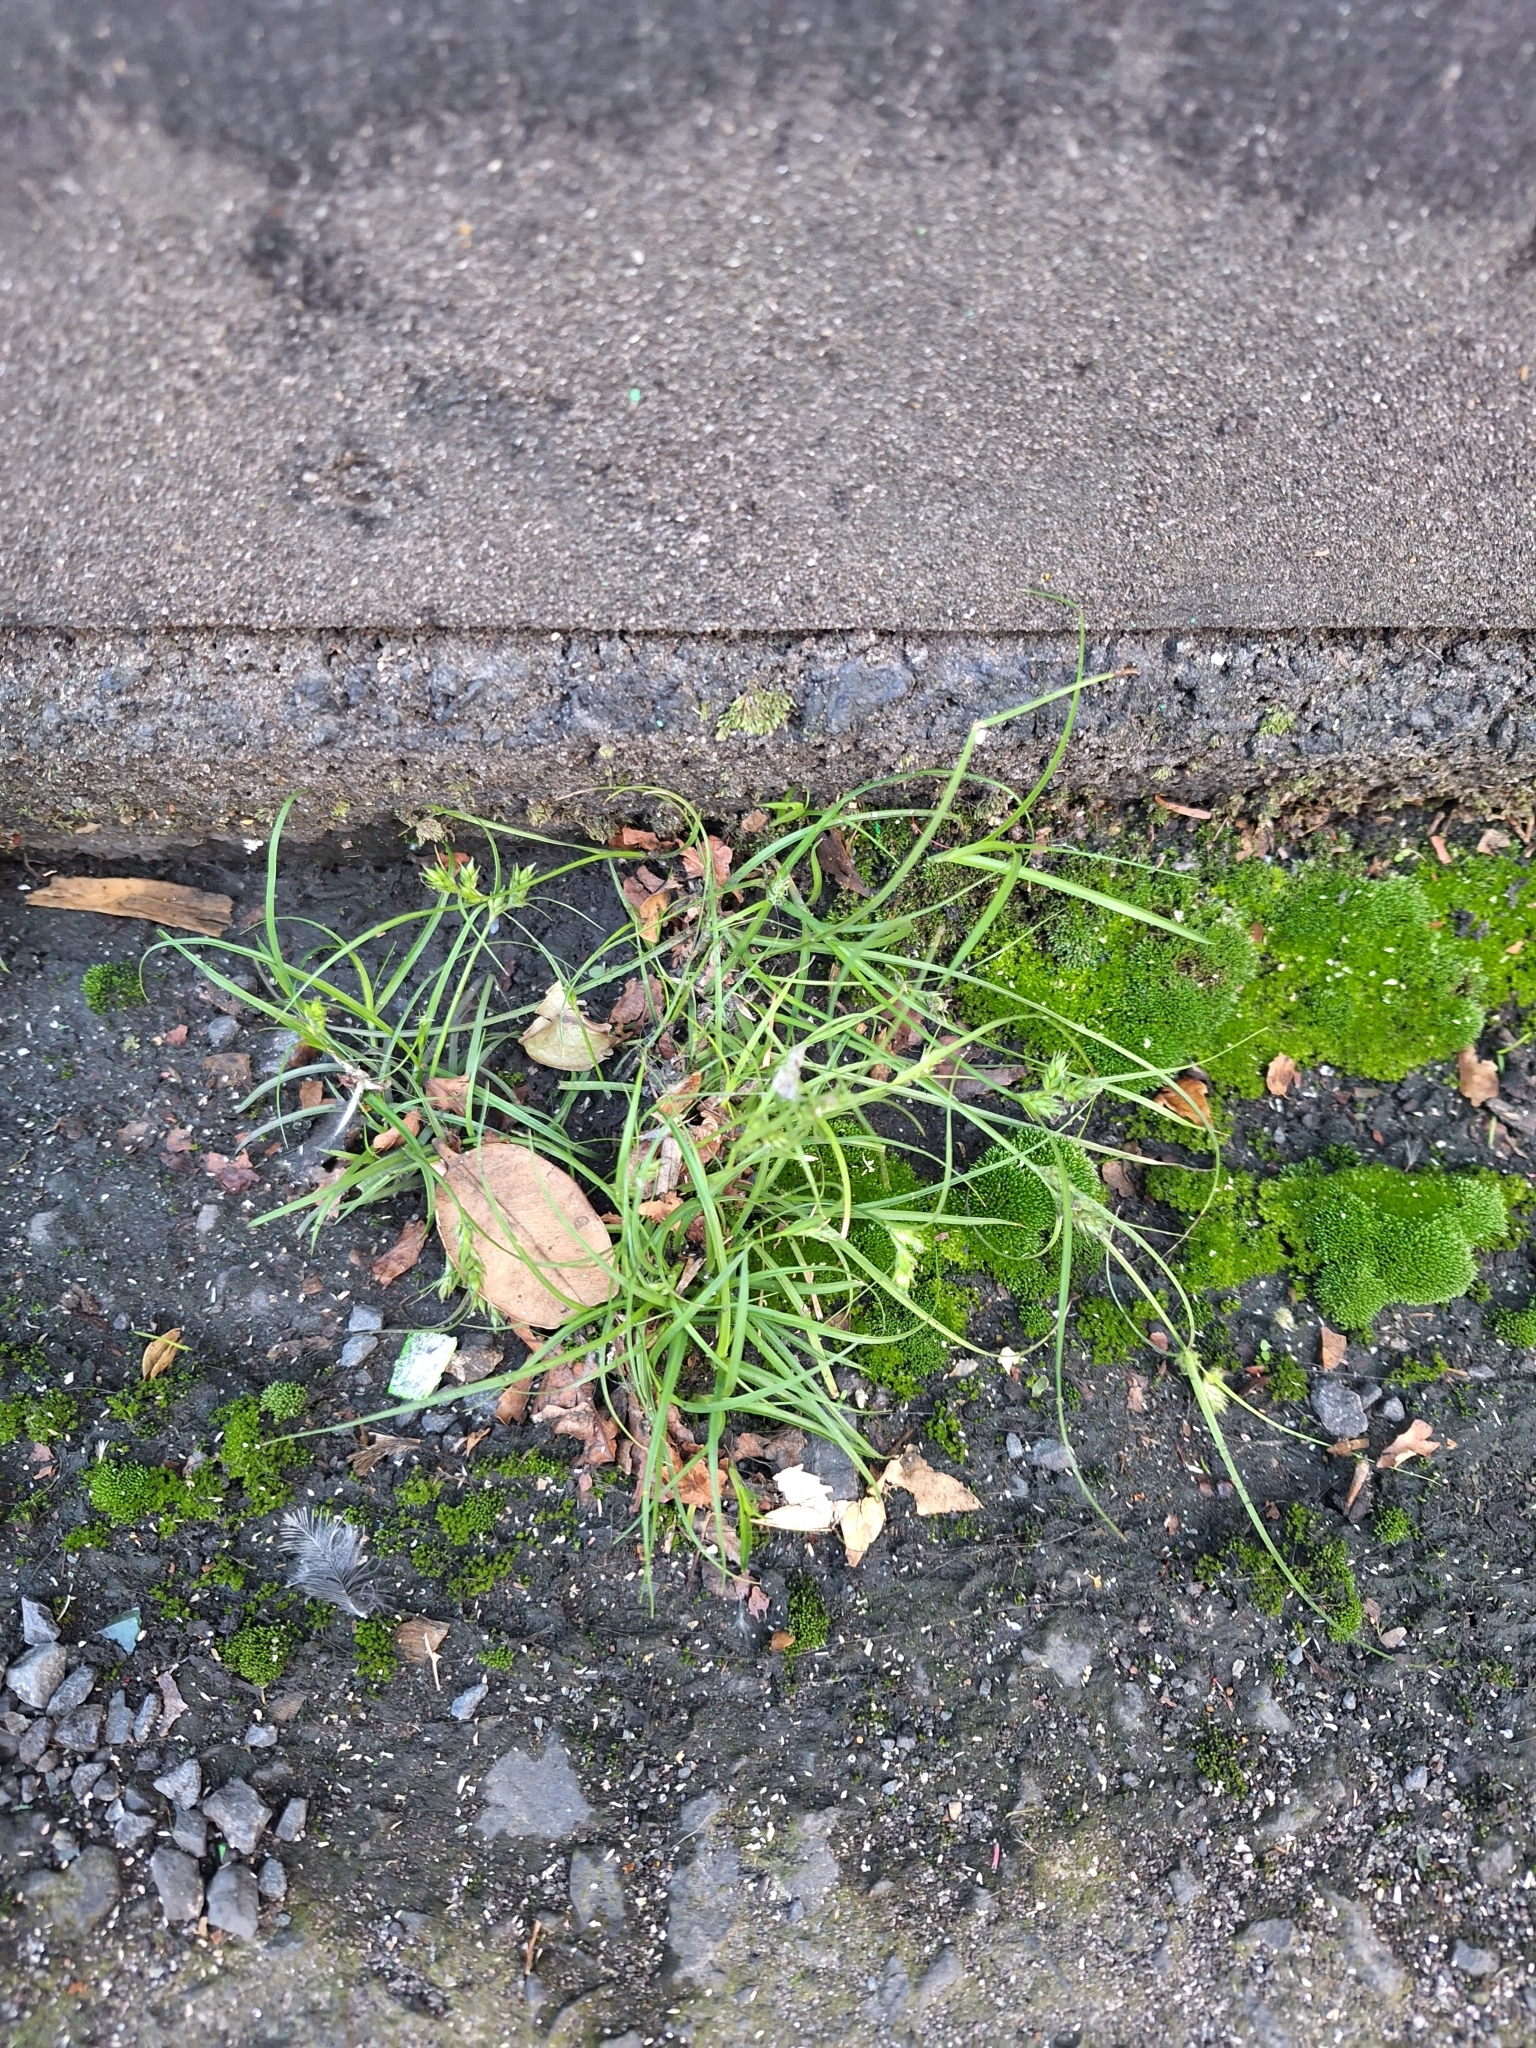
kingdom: Plantae
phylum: Tracheophyta
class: Liliopsida
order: Poales
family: Cyperaceae
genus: Carex
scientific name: Carex inversa
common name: Knob sedge
